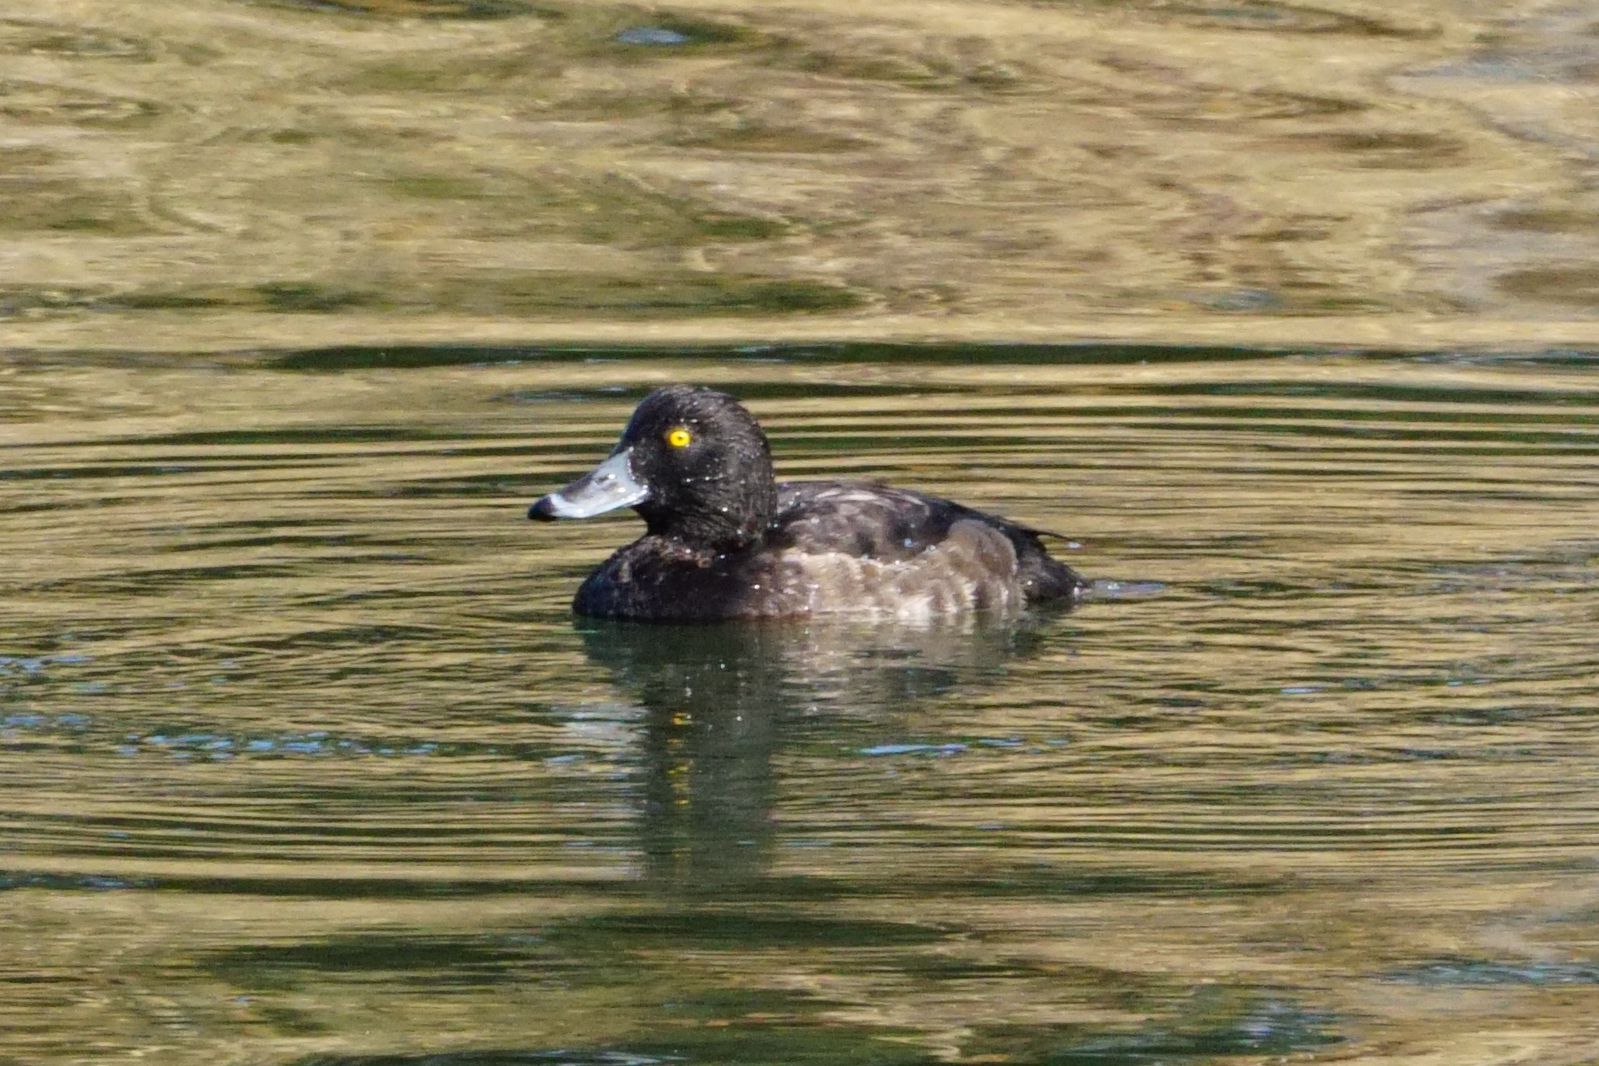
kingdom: Animalia
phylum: Chordata
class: Aves
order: Anseriformes
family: Anatidae
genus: Aythya
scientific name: Aythya fuligula
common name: Tufted duck
